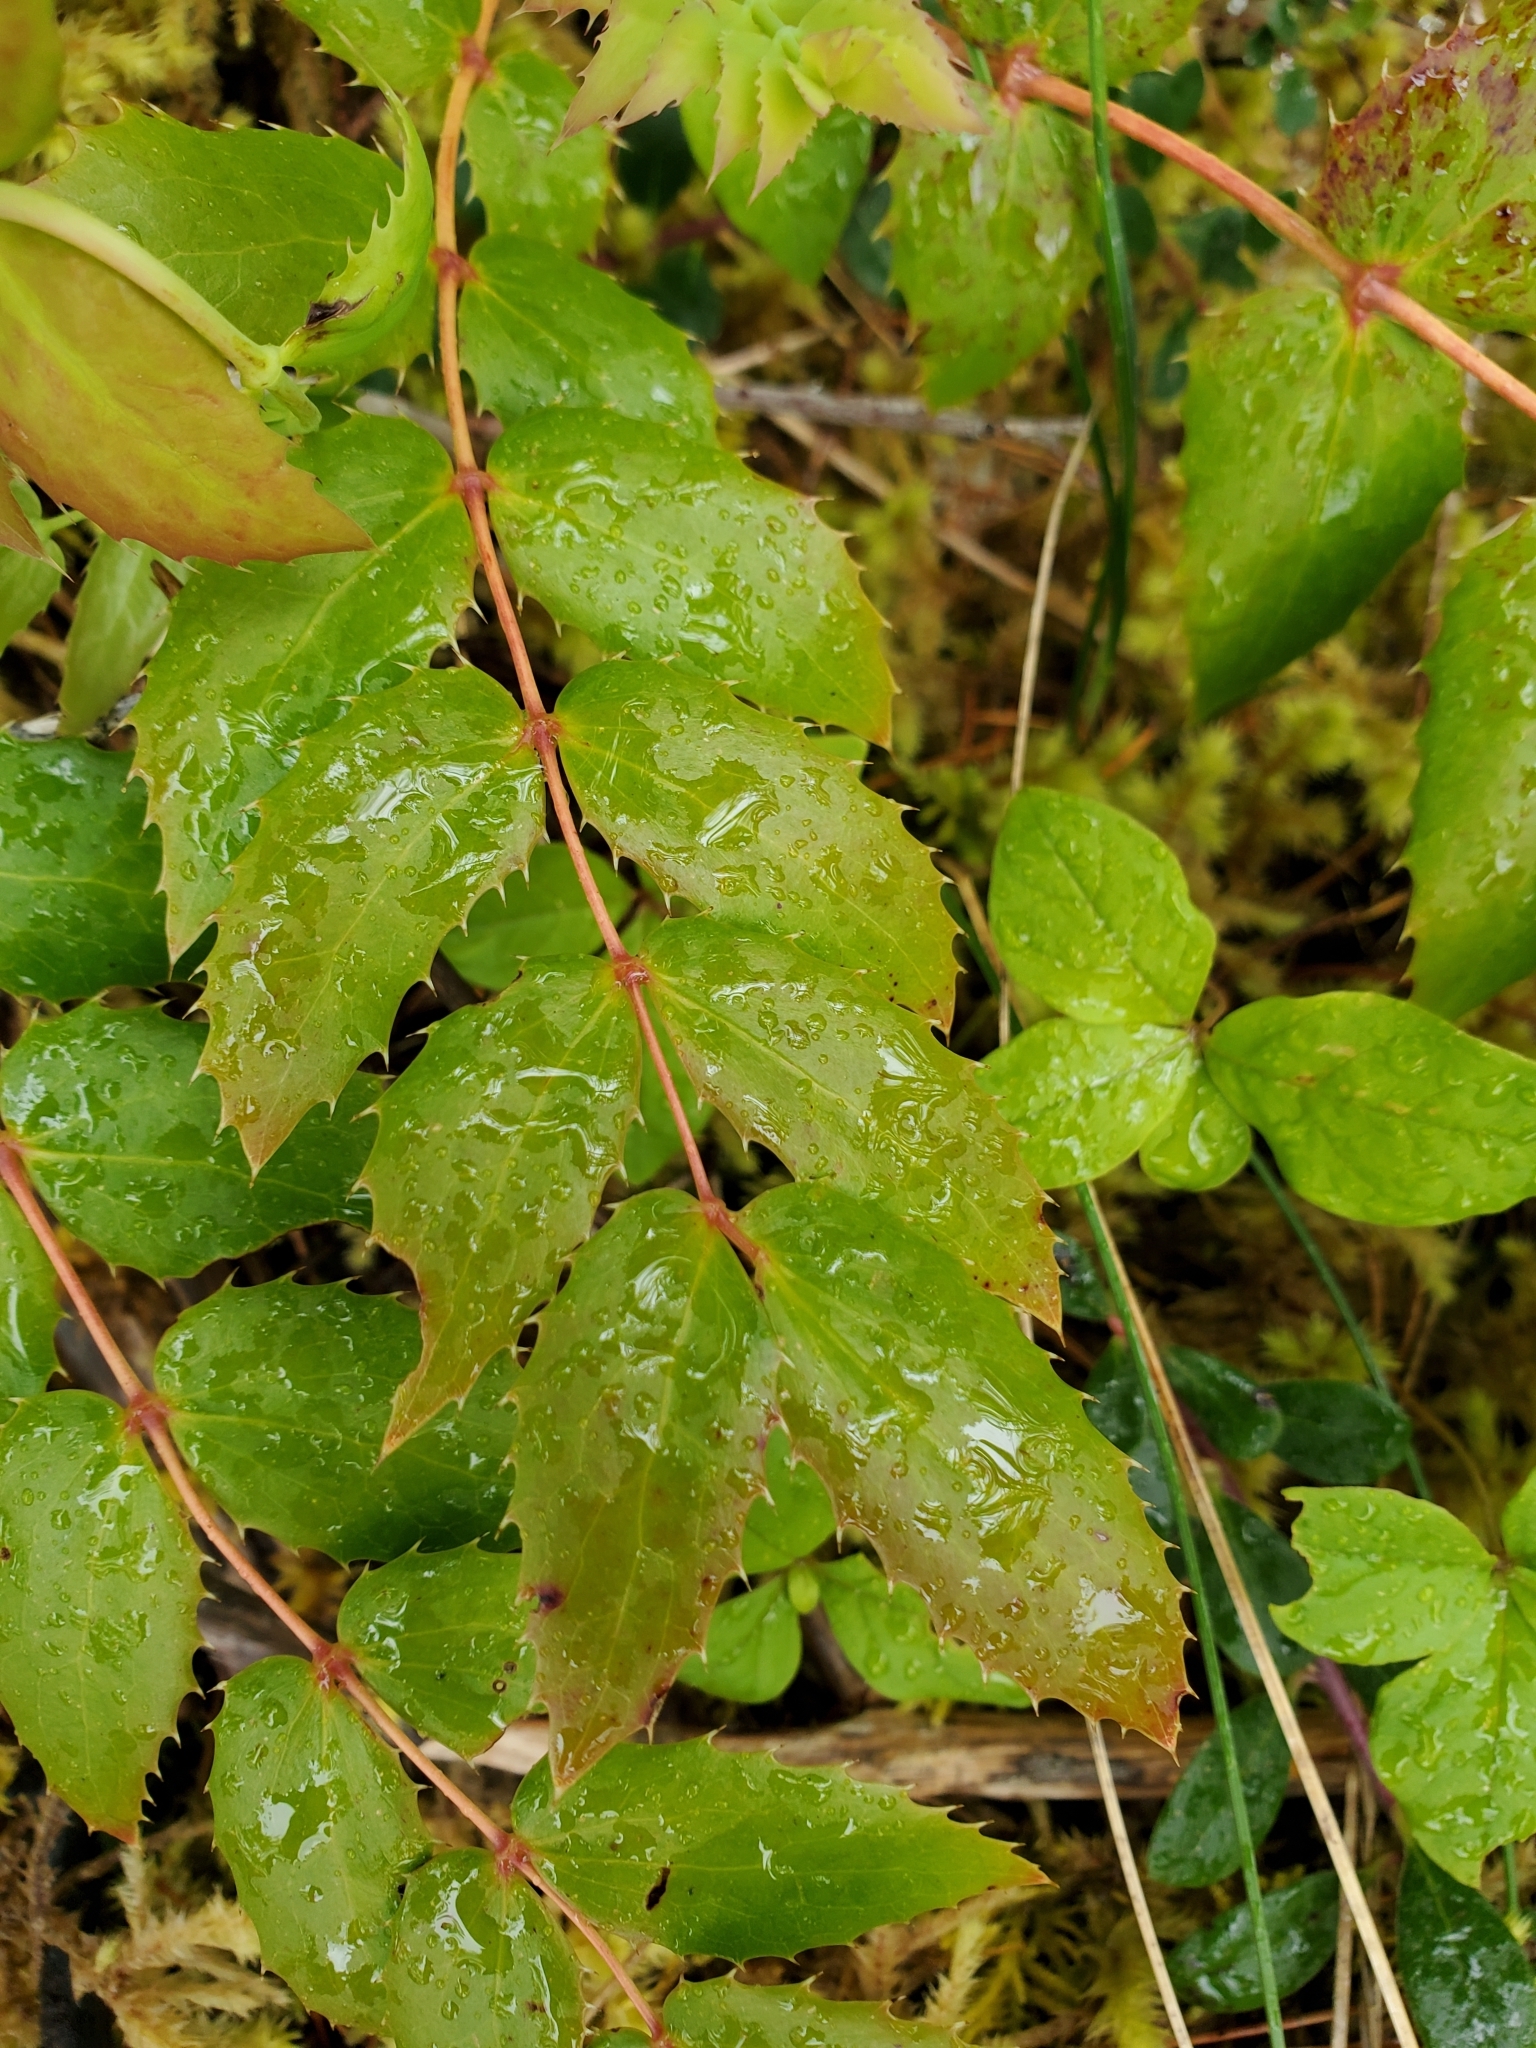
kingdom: Plantae
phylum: Tracheophyta
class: Magnoliopsida
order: Ranunculales
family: Berberidaceae
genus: Mahonia
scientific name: Mahonia nervosa
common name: Cascade oregon-grape
